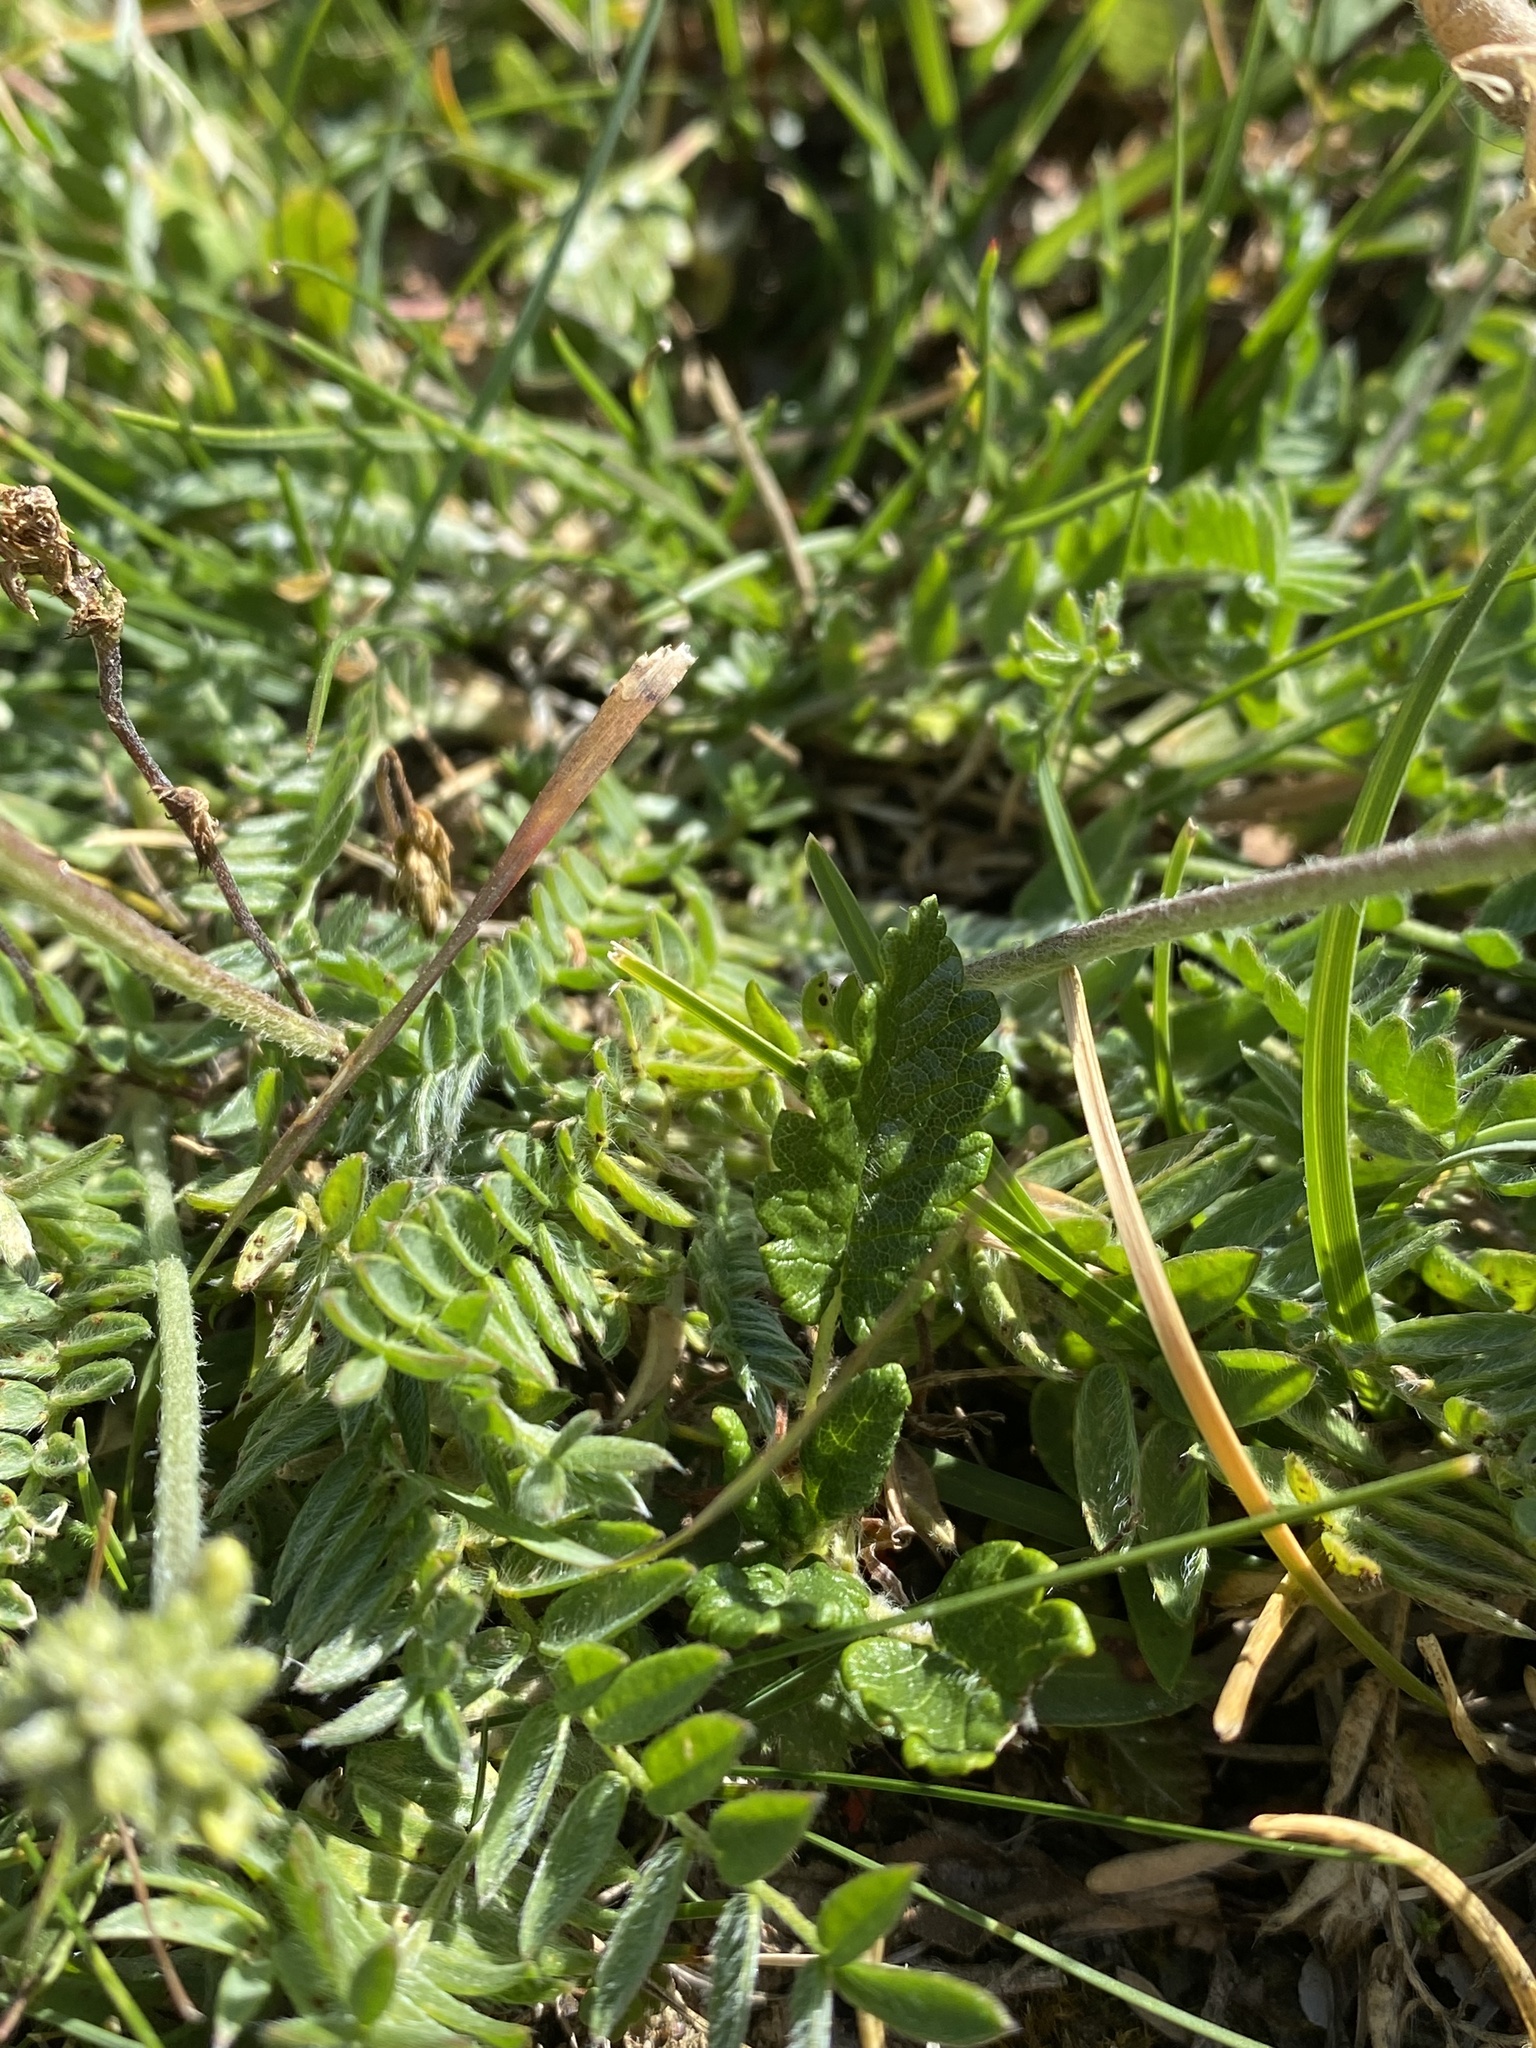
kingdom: Plantae
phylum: Tracheophyta
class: Magnoliopsida
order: Fabales
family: Fabaceae
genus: Oxytropis
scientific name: Oxytropis campestris
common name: Field locoweed
